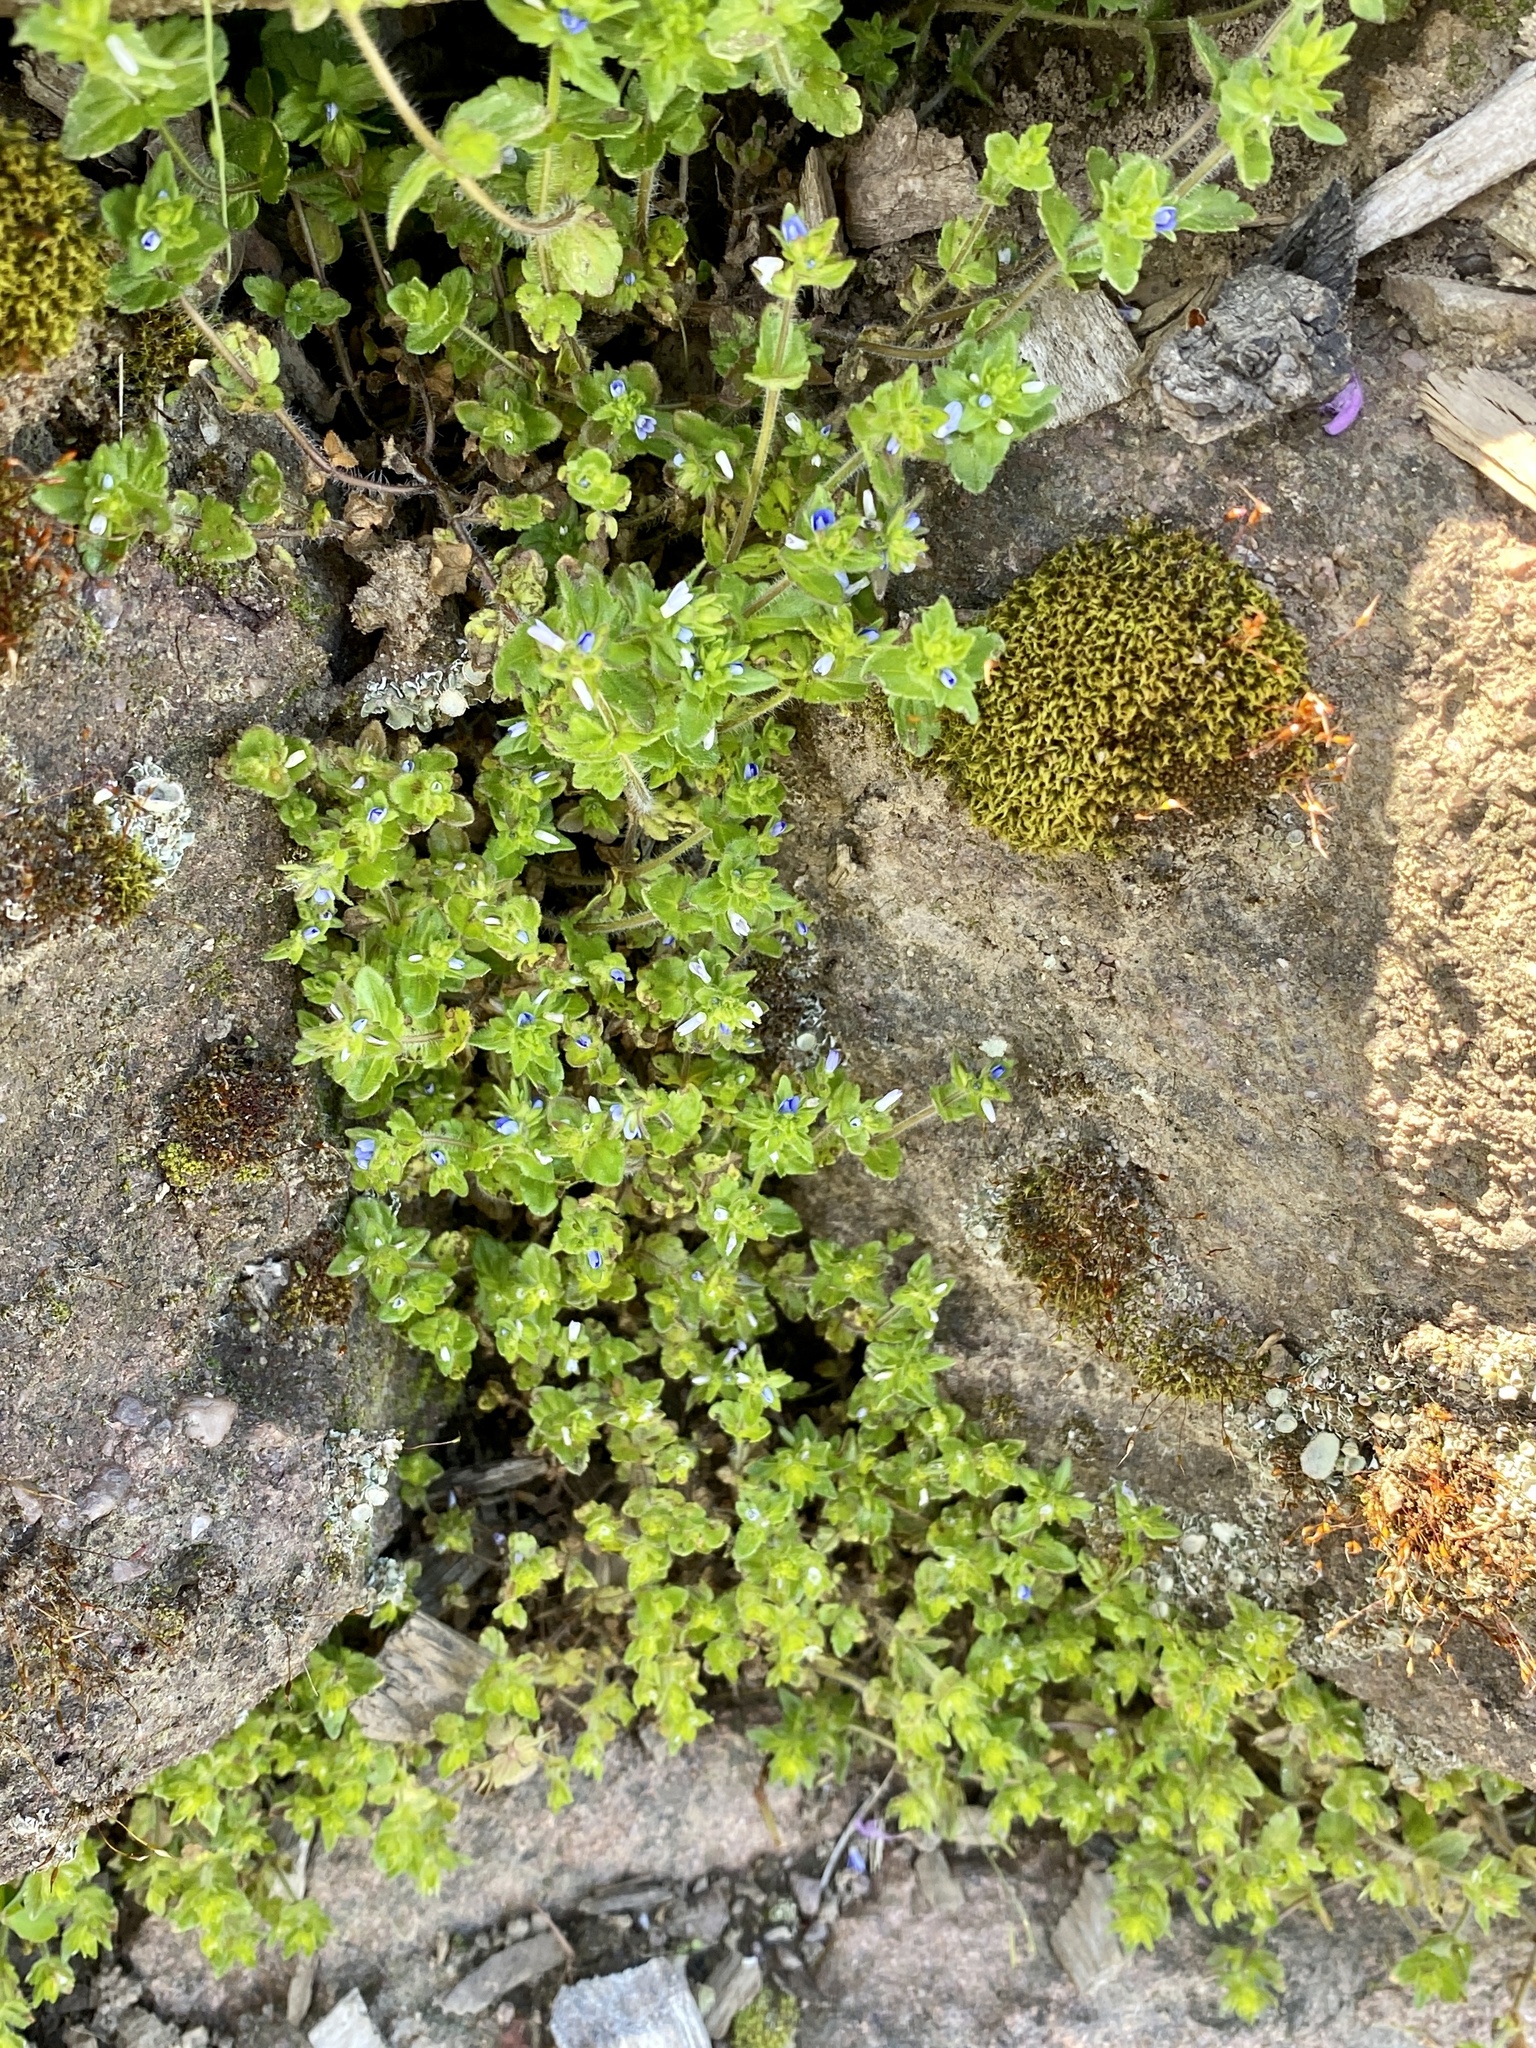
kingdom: Plantae
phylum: Tracheophyta
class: Magnoliopsida
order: Lamiales
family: Plantaginaceae
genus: Veronica
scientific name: Veronica arvensis
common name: Corn speedwell
